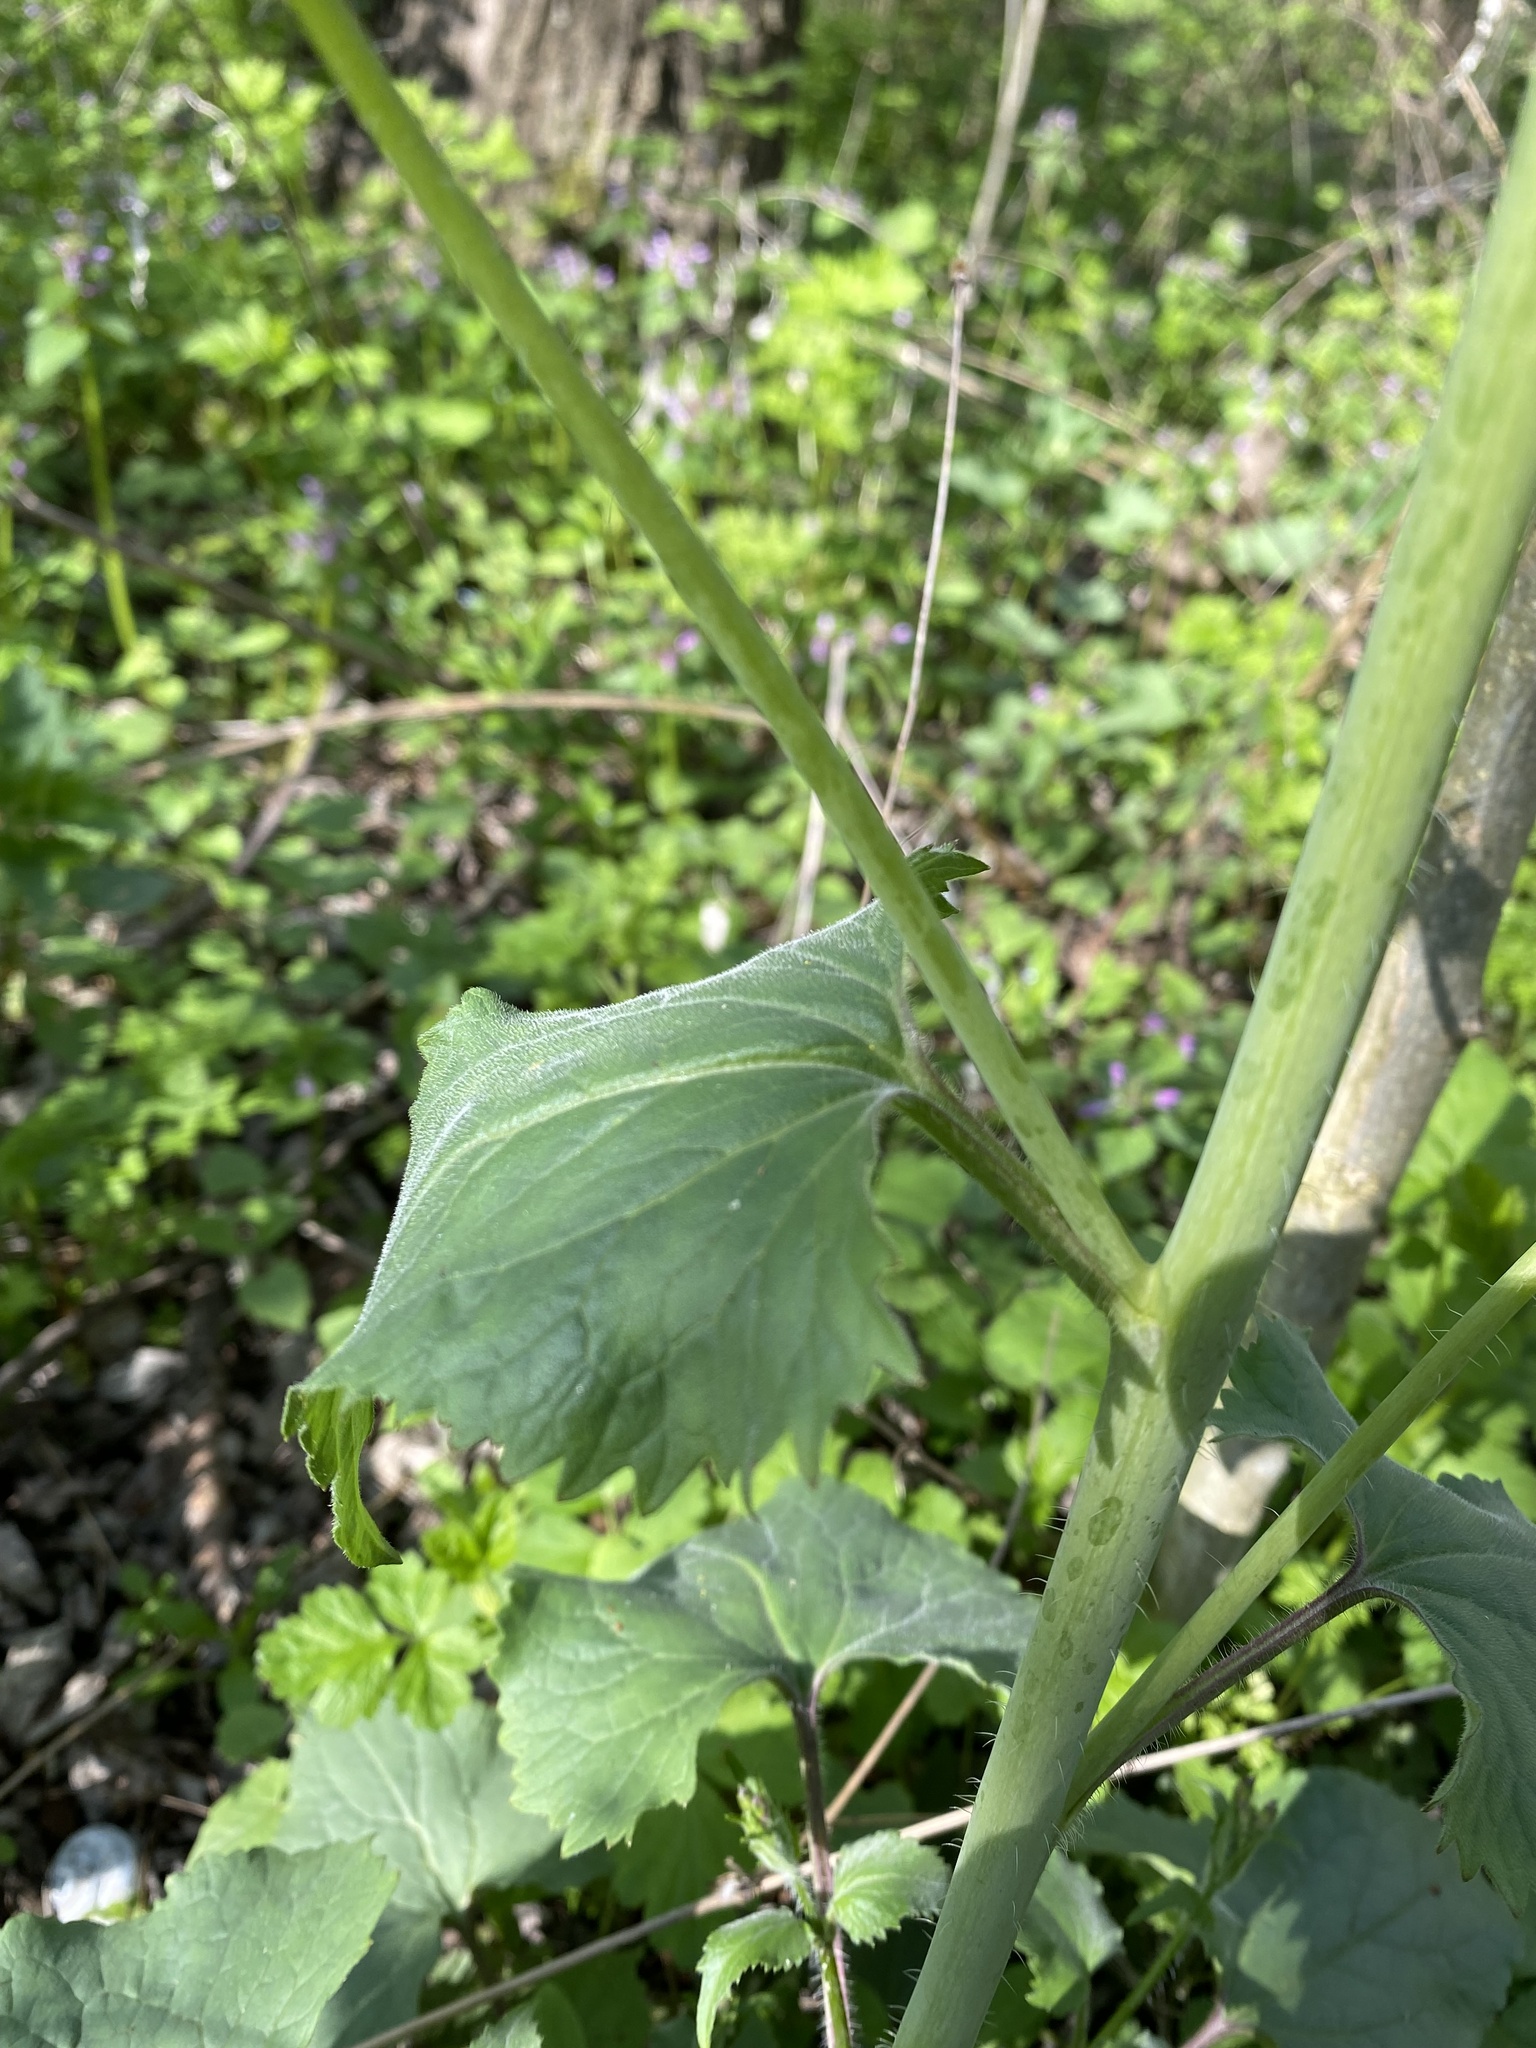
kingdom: Plantae
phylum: Tracheophyta
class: Magnoliopsida
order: Brassicales
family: Brassicaceae
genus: Lunaria
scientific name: Lunaria annua
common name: Honesty
